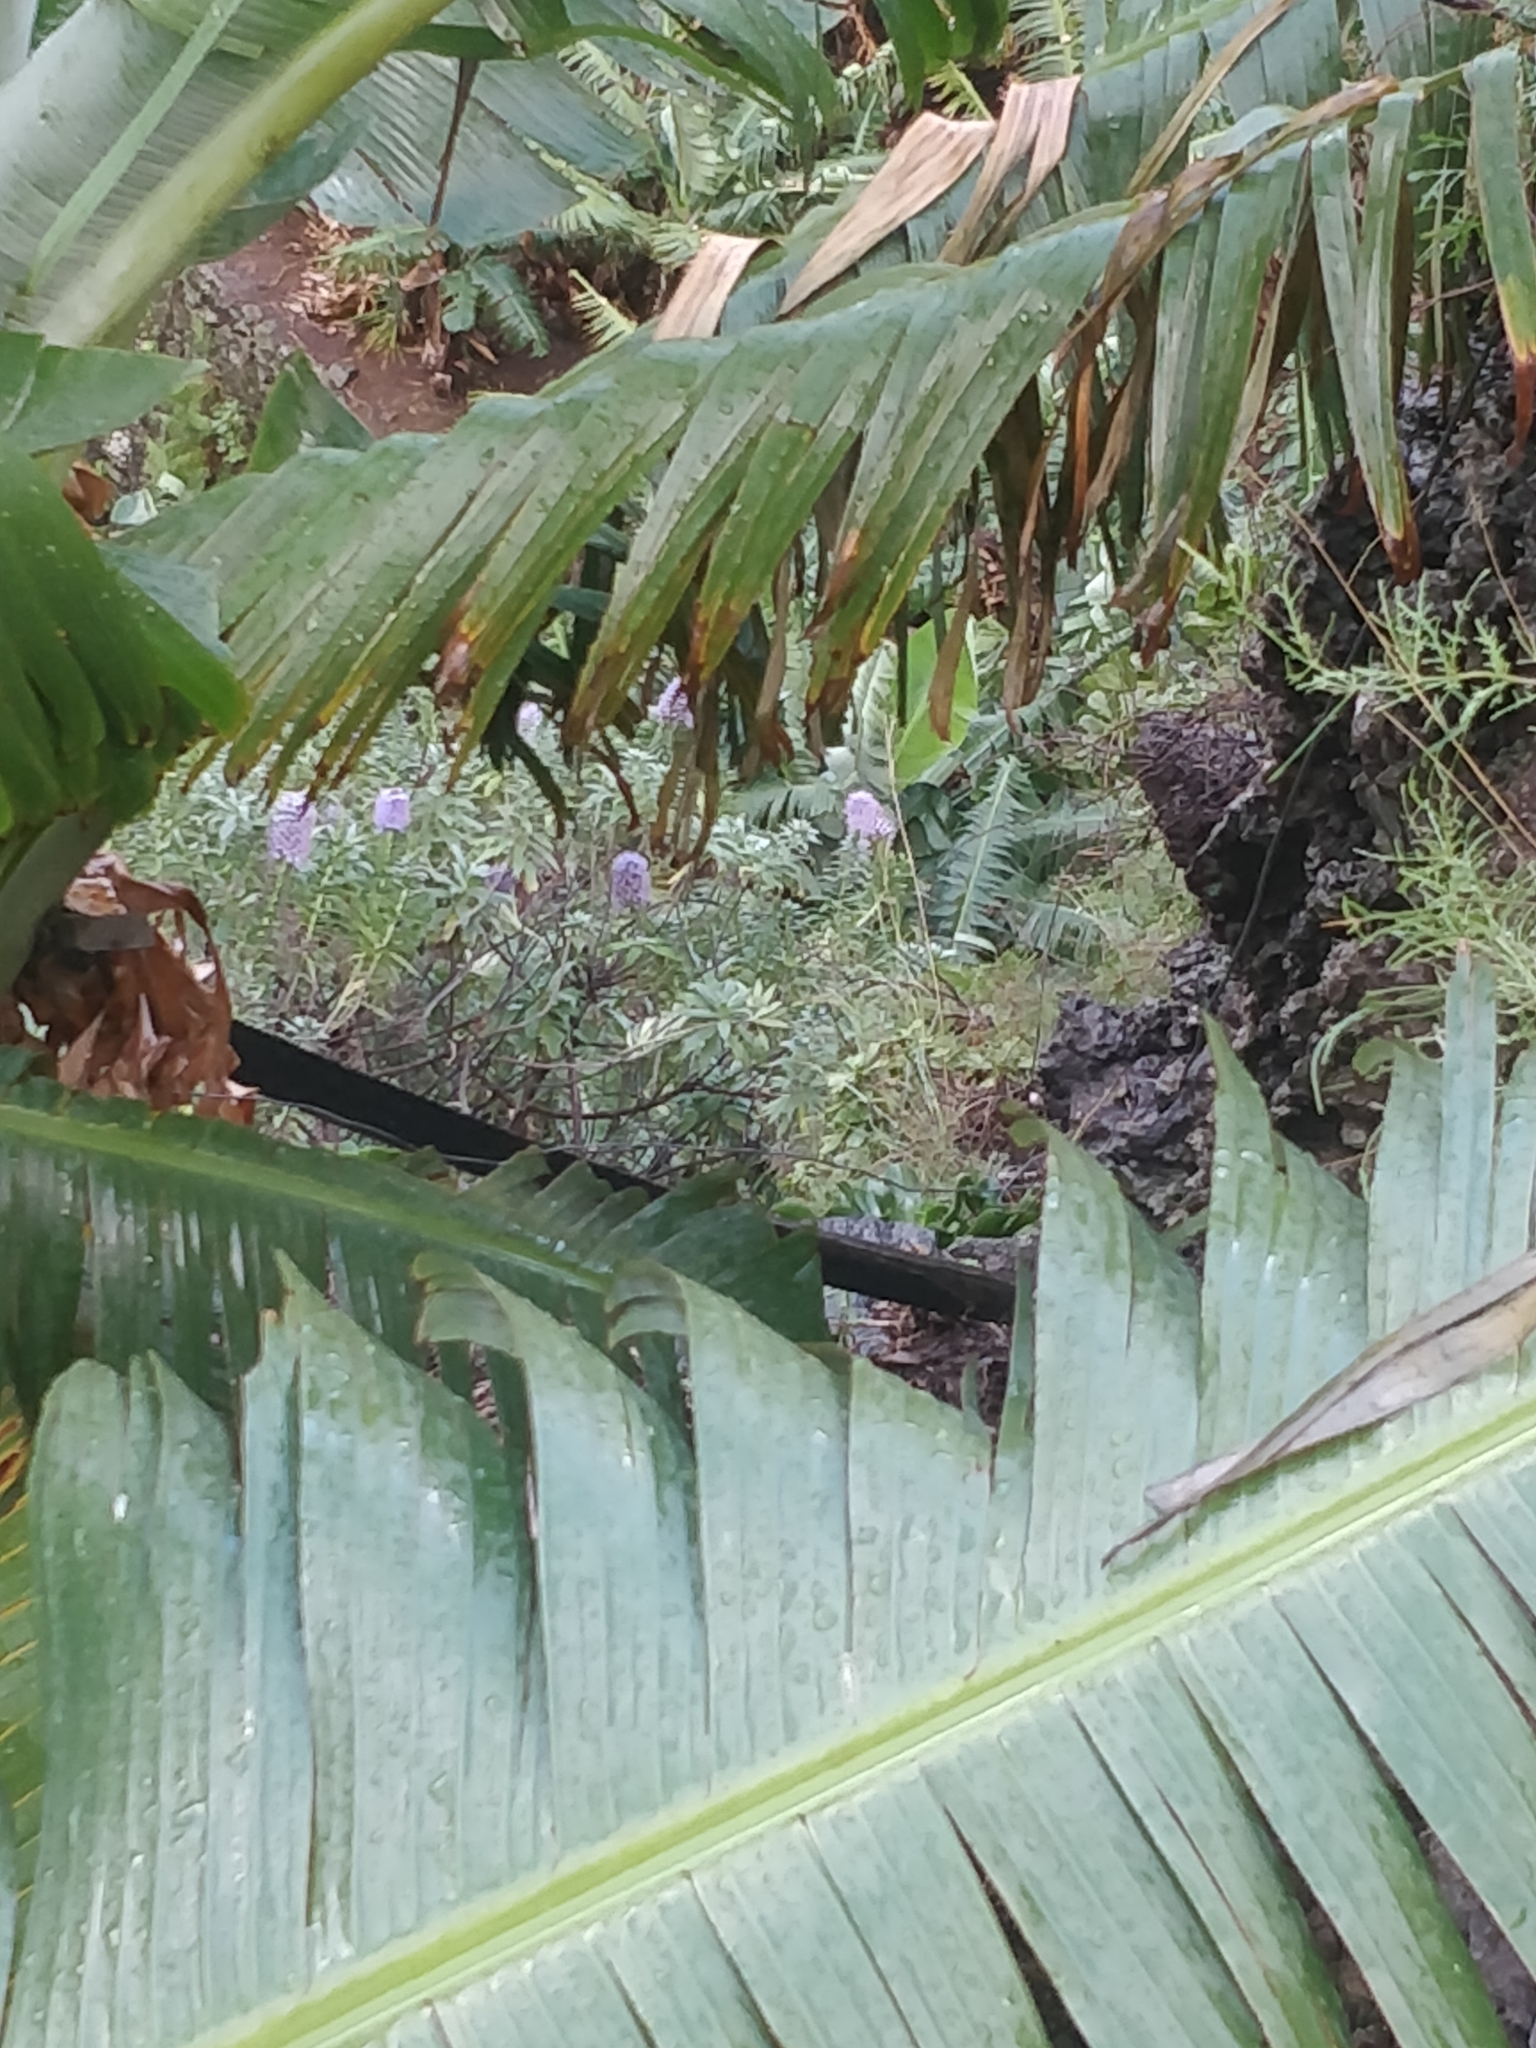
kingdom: Plantae
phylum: Tracheophyta
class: Magnoliopsida
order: Boraginales
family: Boraginaceae
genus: Echium
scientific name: Echium nervosum
